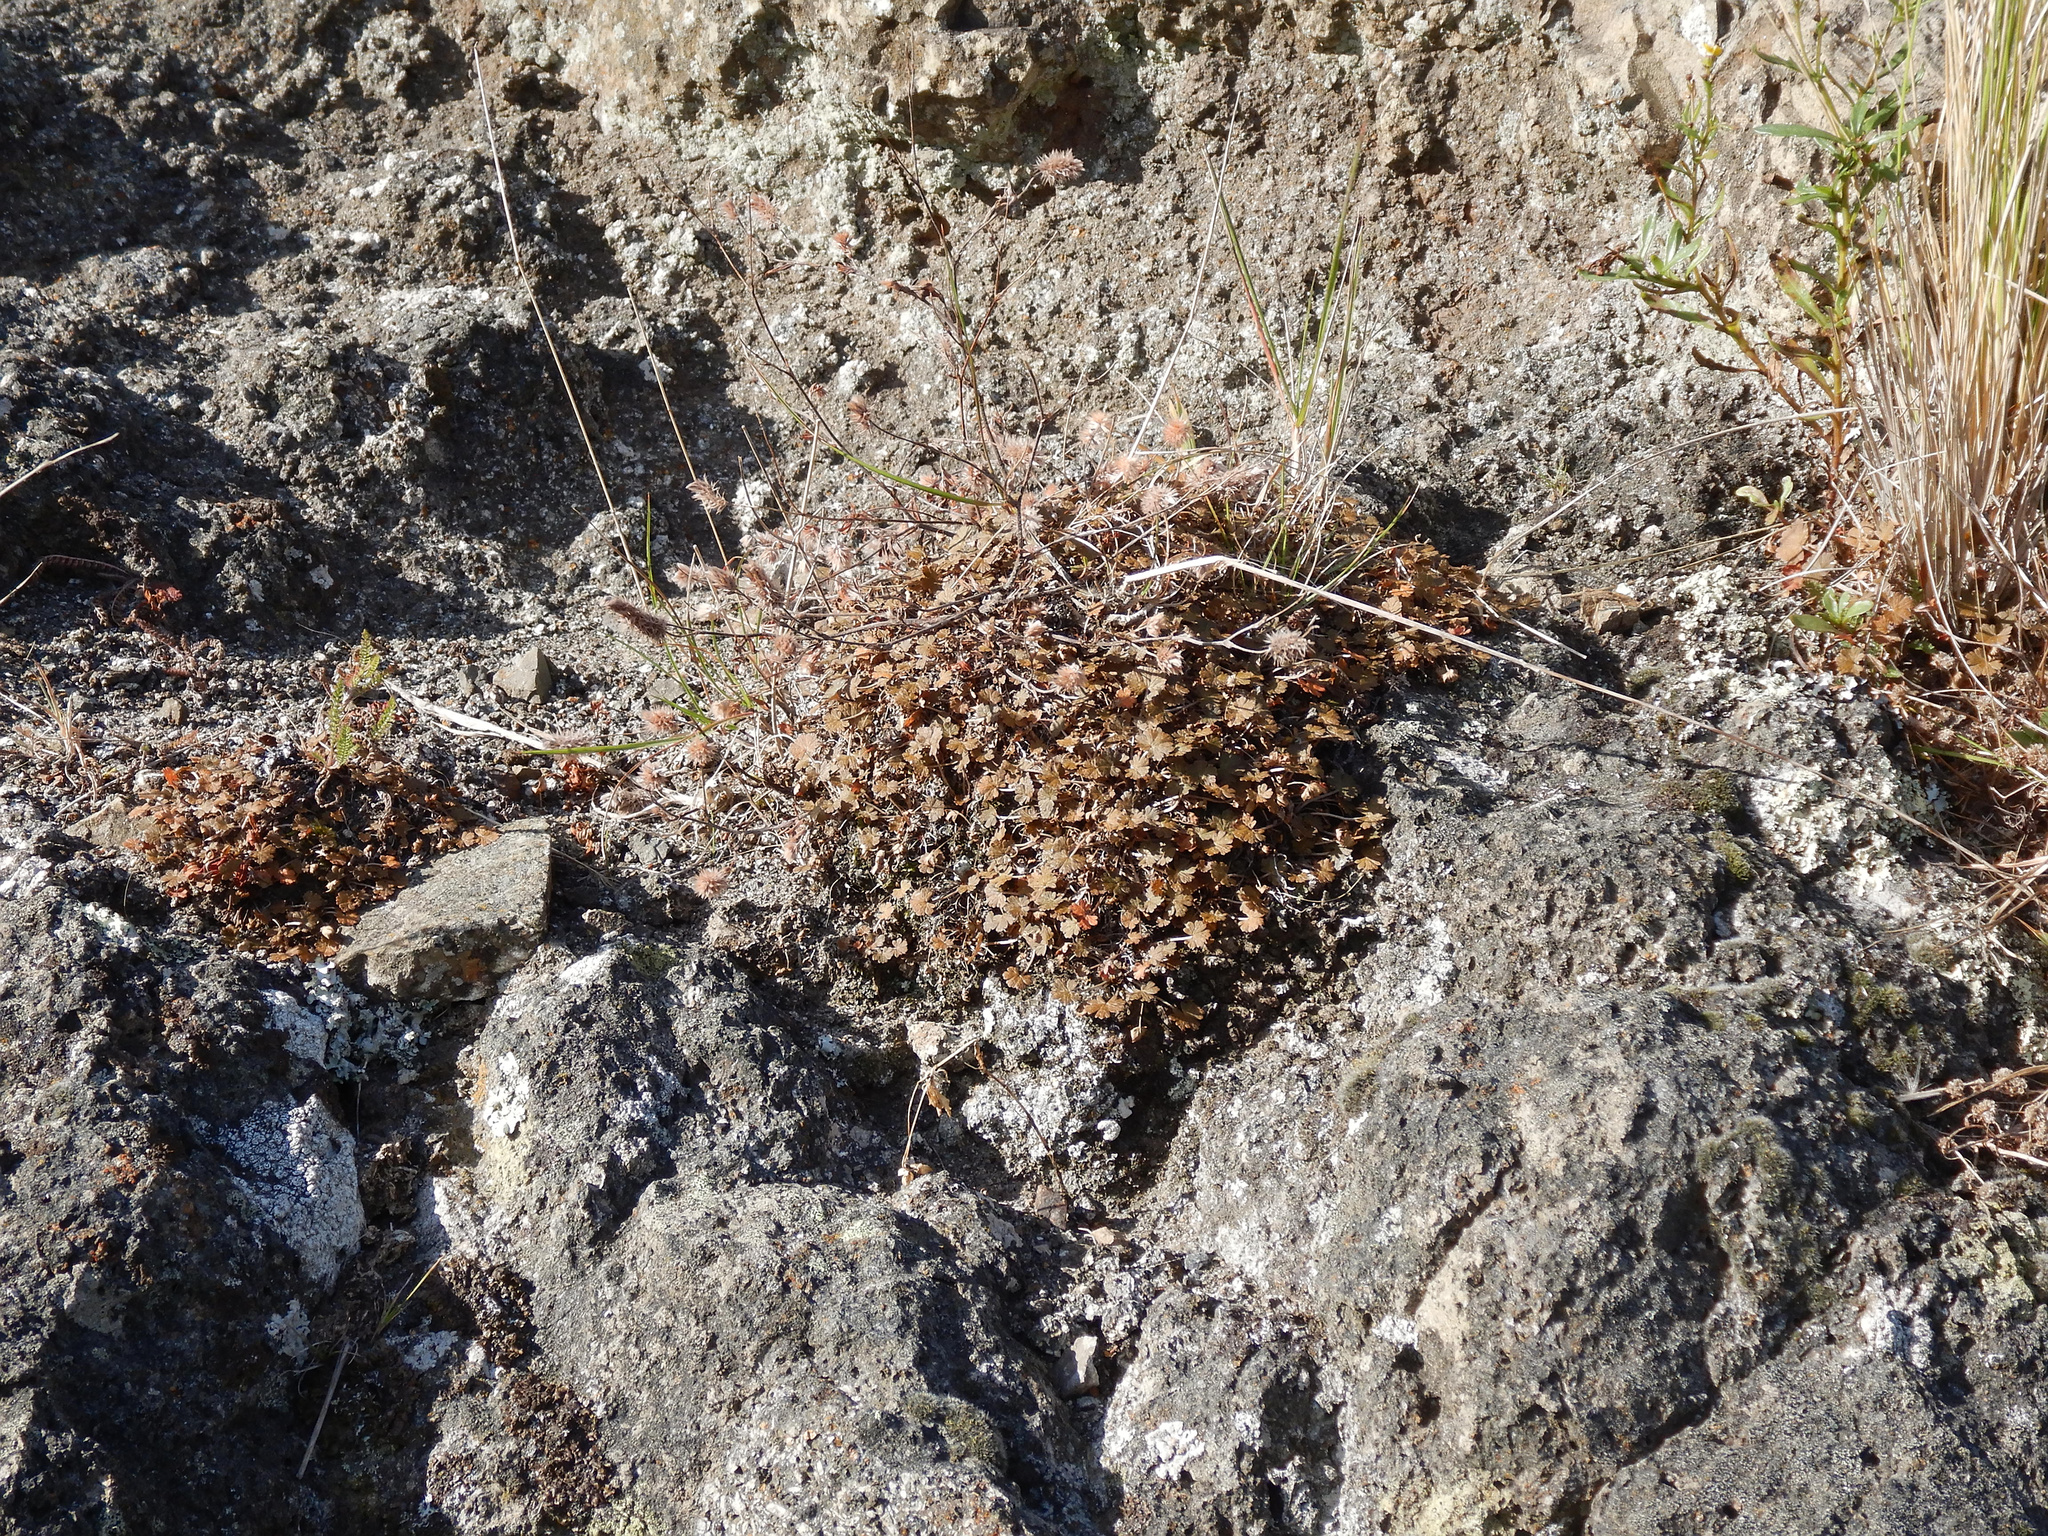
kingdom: Plantae
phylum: Tracheophyta
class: Magnoliopsida
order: Geraniales
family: Geraniaceae
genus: Geranium
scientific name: Geranium brevicaule
